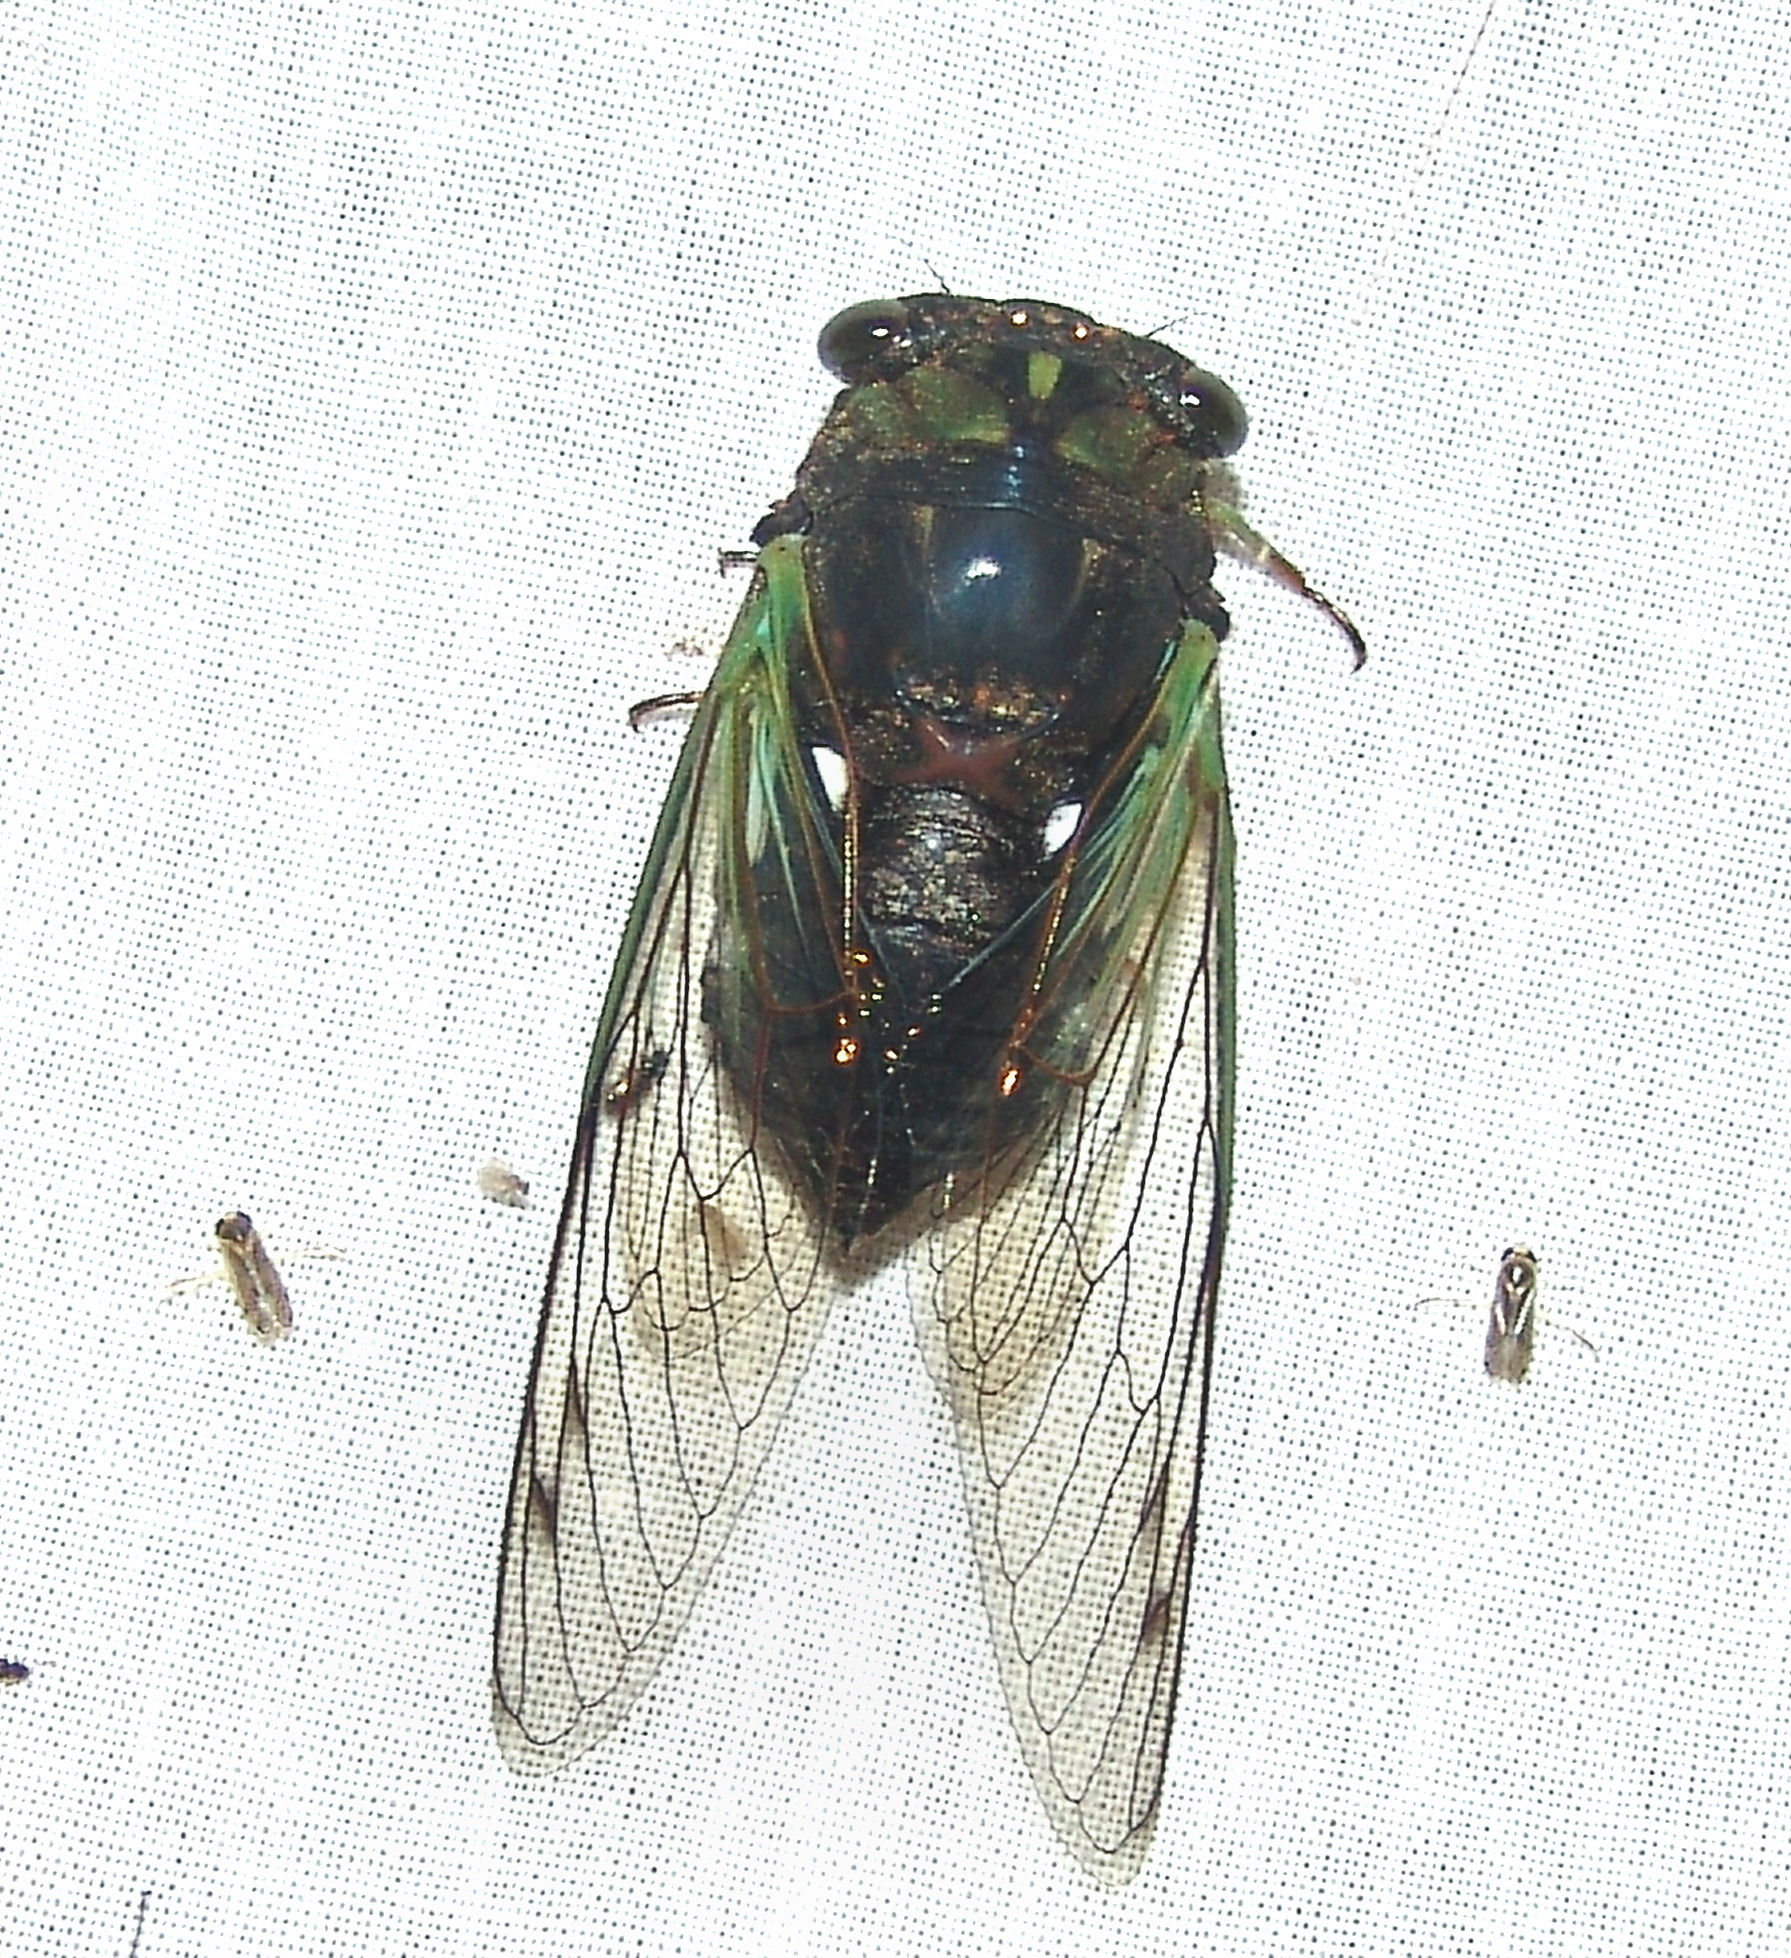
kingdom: Animalia
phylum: Arthropoda
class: Insecta
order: Hemiptera
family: Cicadidae
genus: Neotibicen
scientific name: Neotibicen tibicen
